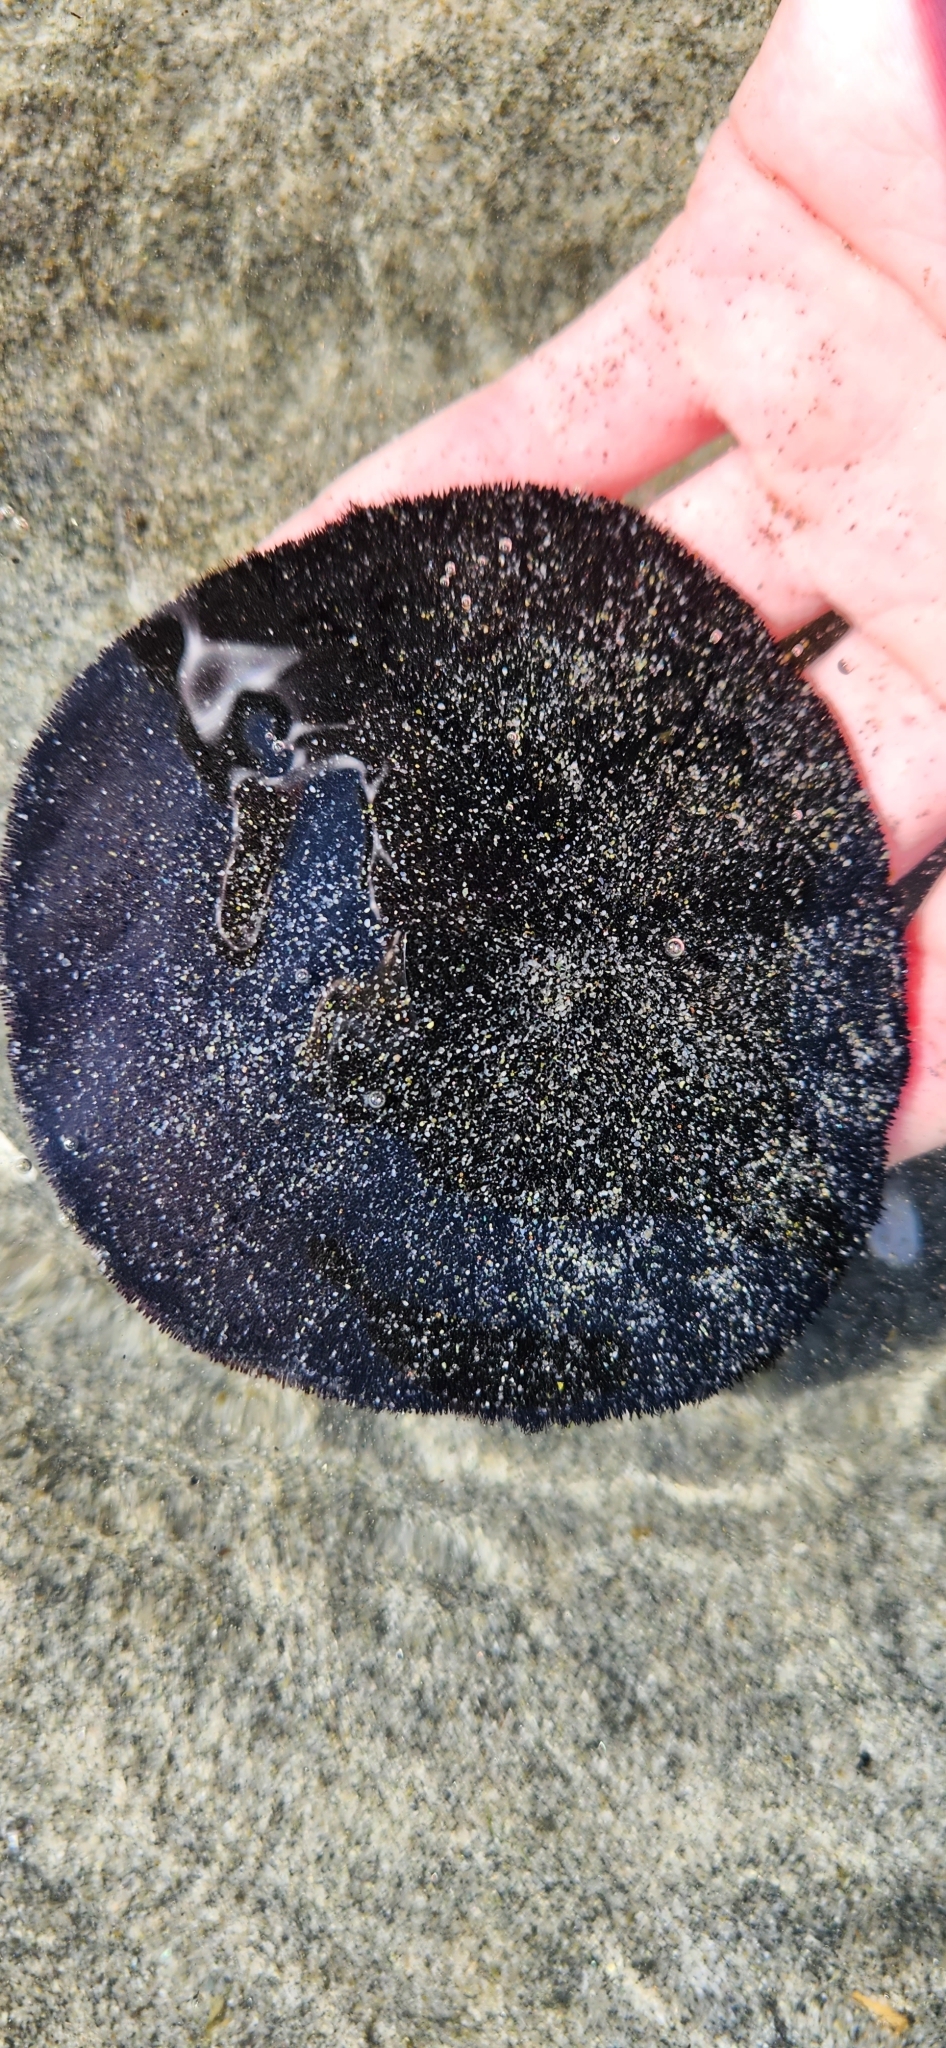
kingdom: Animalia
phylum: Echinodermata
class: Echinoidea
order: Echinolampadacea
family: Dendrasteridae
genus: Dendraster
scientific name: Dendraster excentricus
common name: Eccentric sand dollar sea urchin
